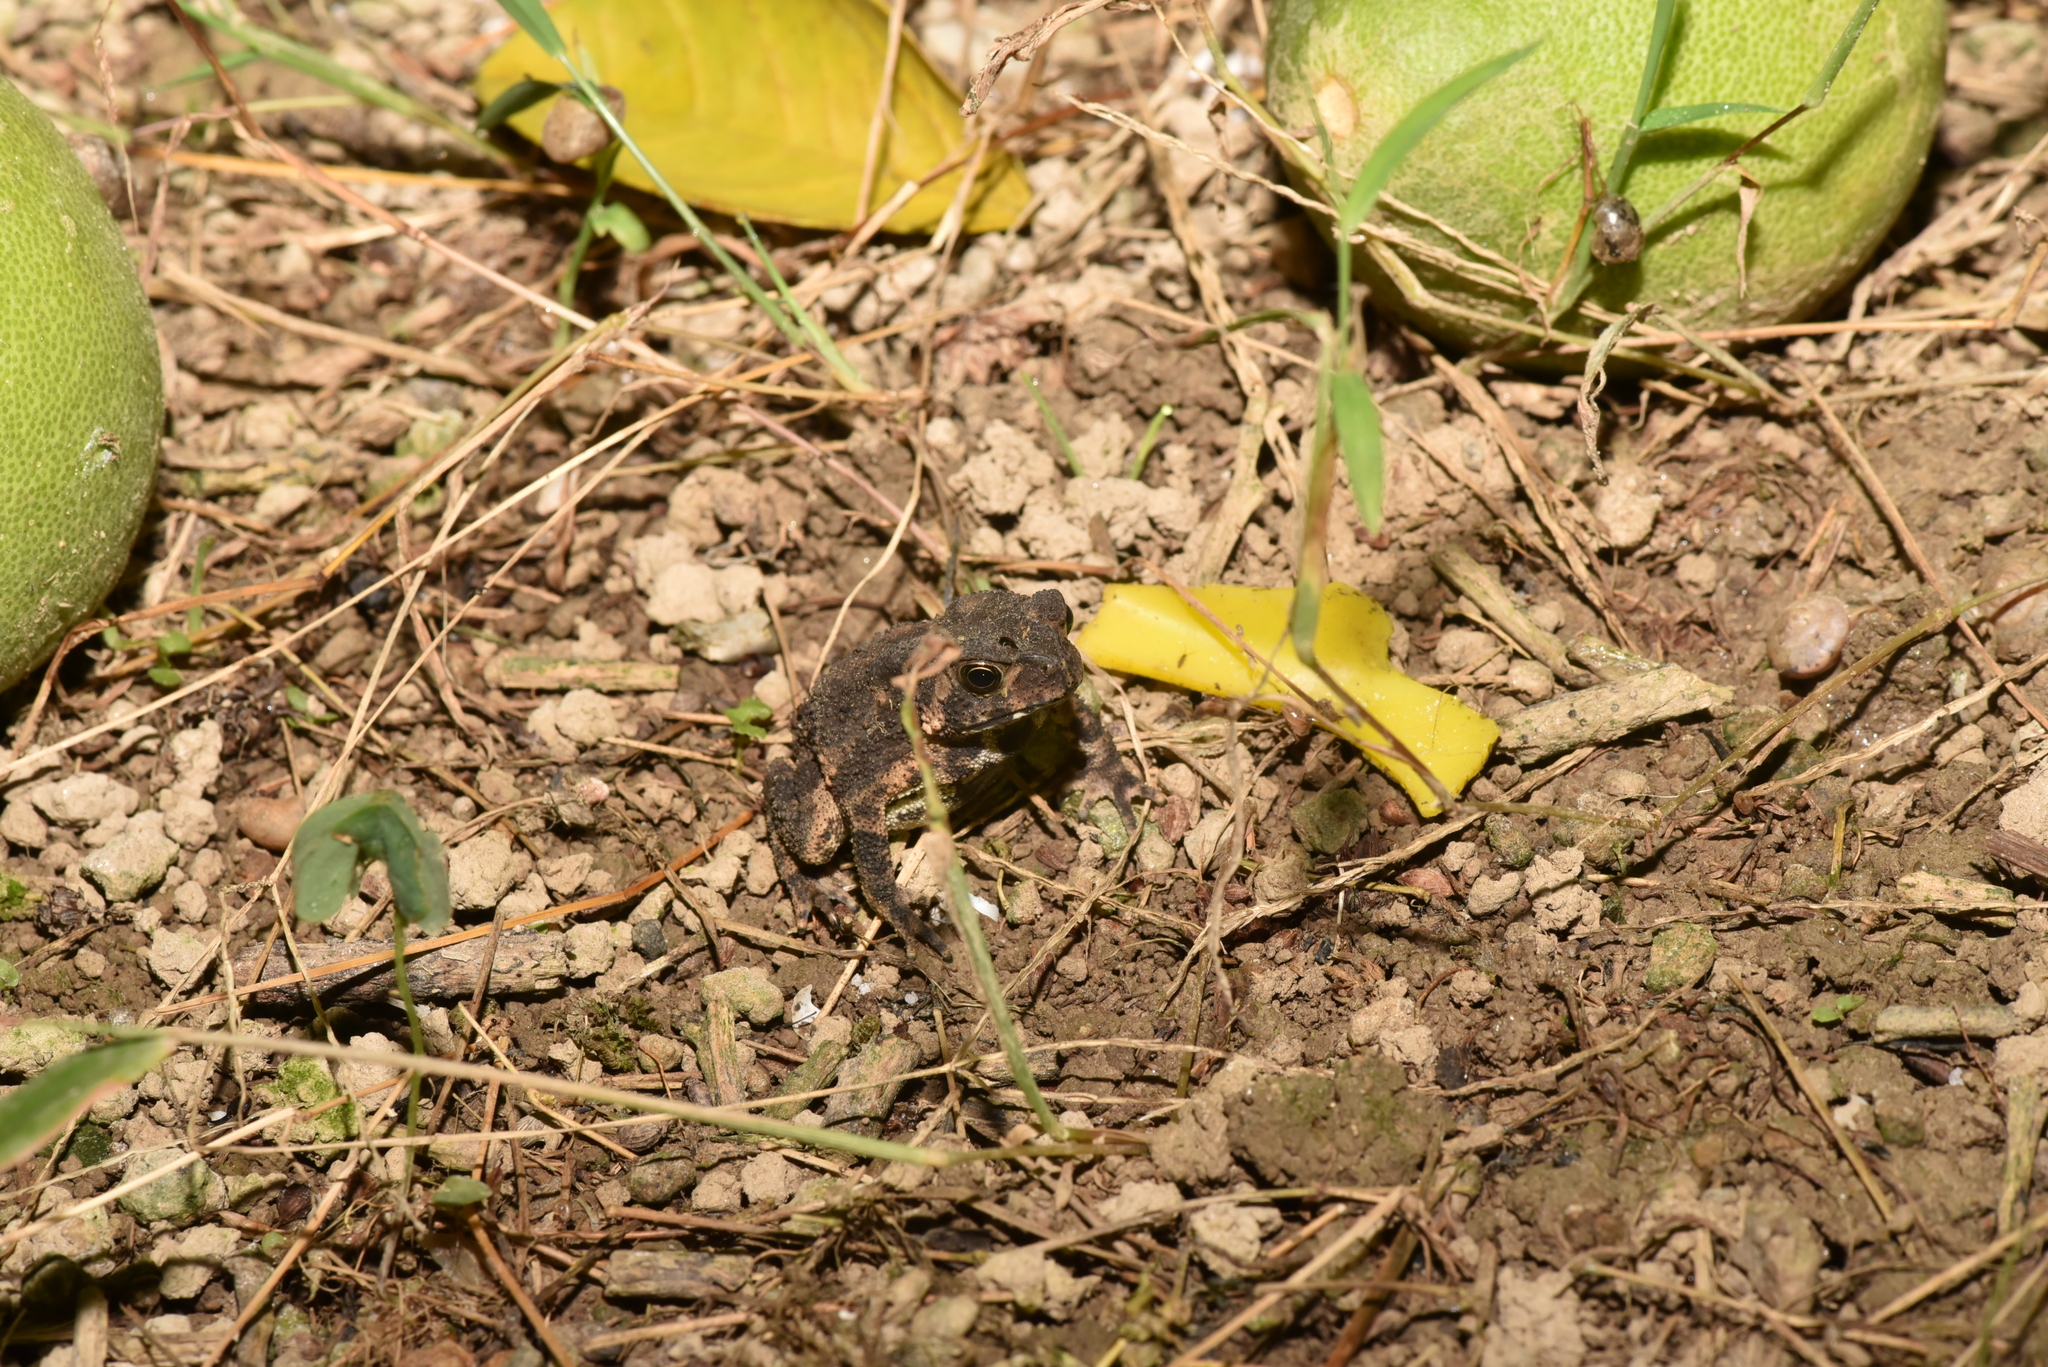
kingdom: Animalia
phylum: Chordata
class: Amphibia
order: Anura
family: Bufonidae
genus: Duttaphrynus
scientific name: Duttaphrynus melanostictus
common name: Common sunda toad
